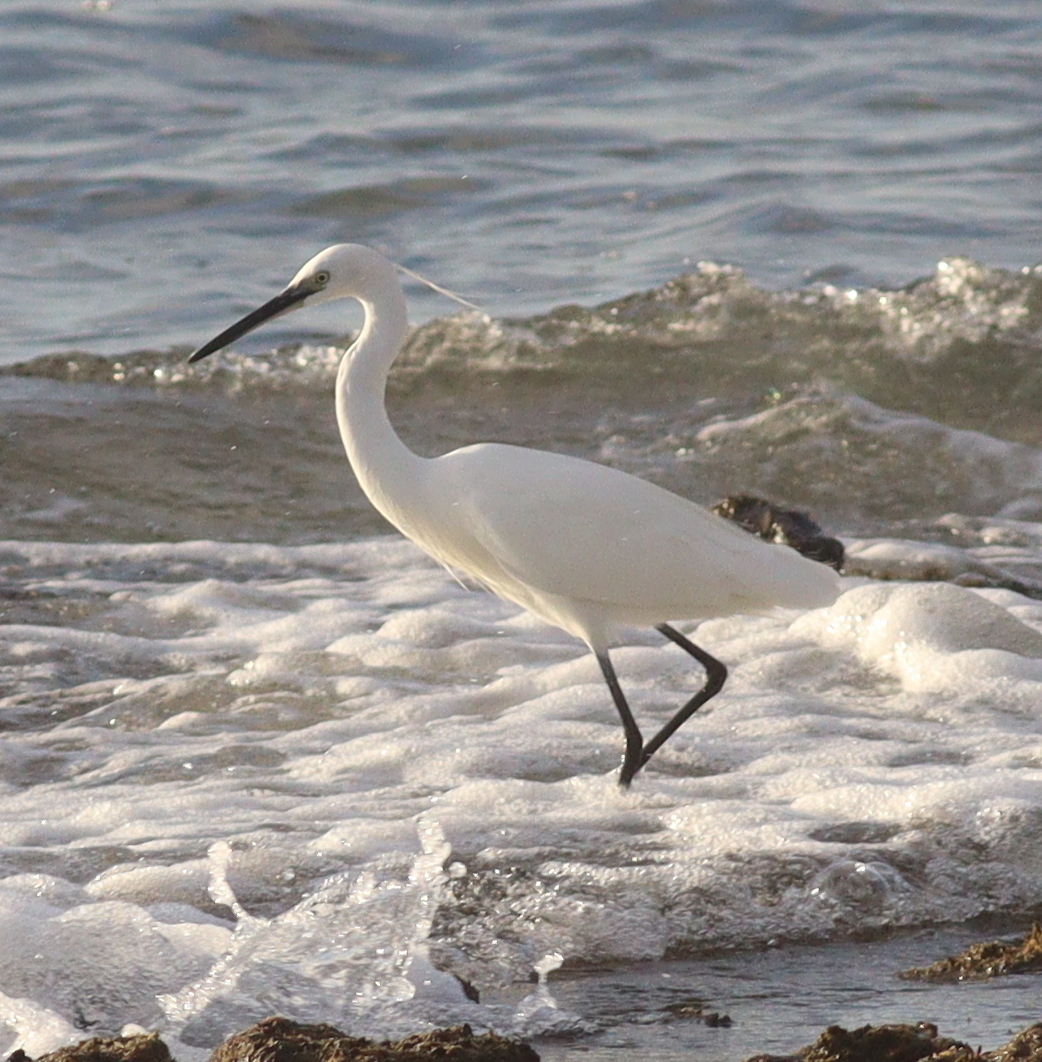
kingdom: Animalia
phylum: Chordata
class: Aves
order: Pelecaniformes
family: Ardeidae
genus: Egretta
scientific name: Egretta garzetta
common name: Little egret
